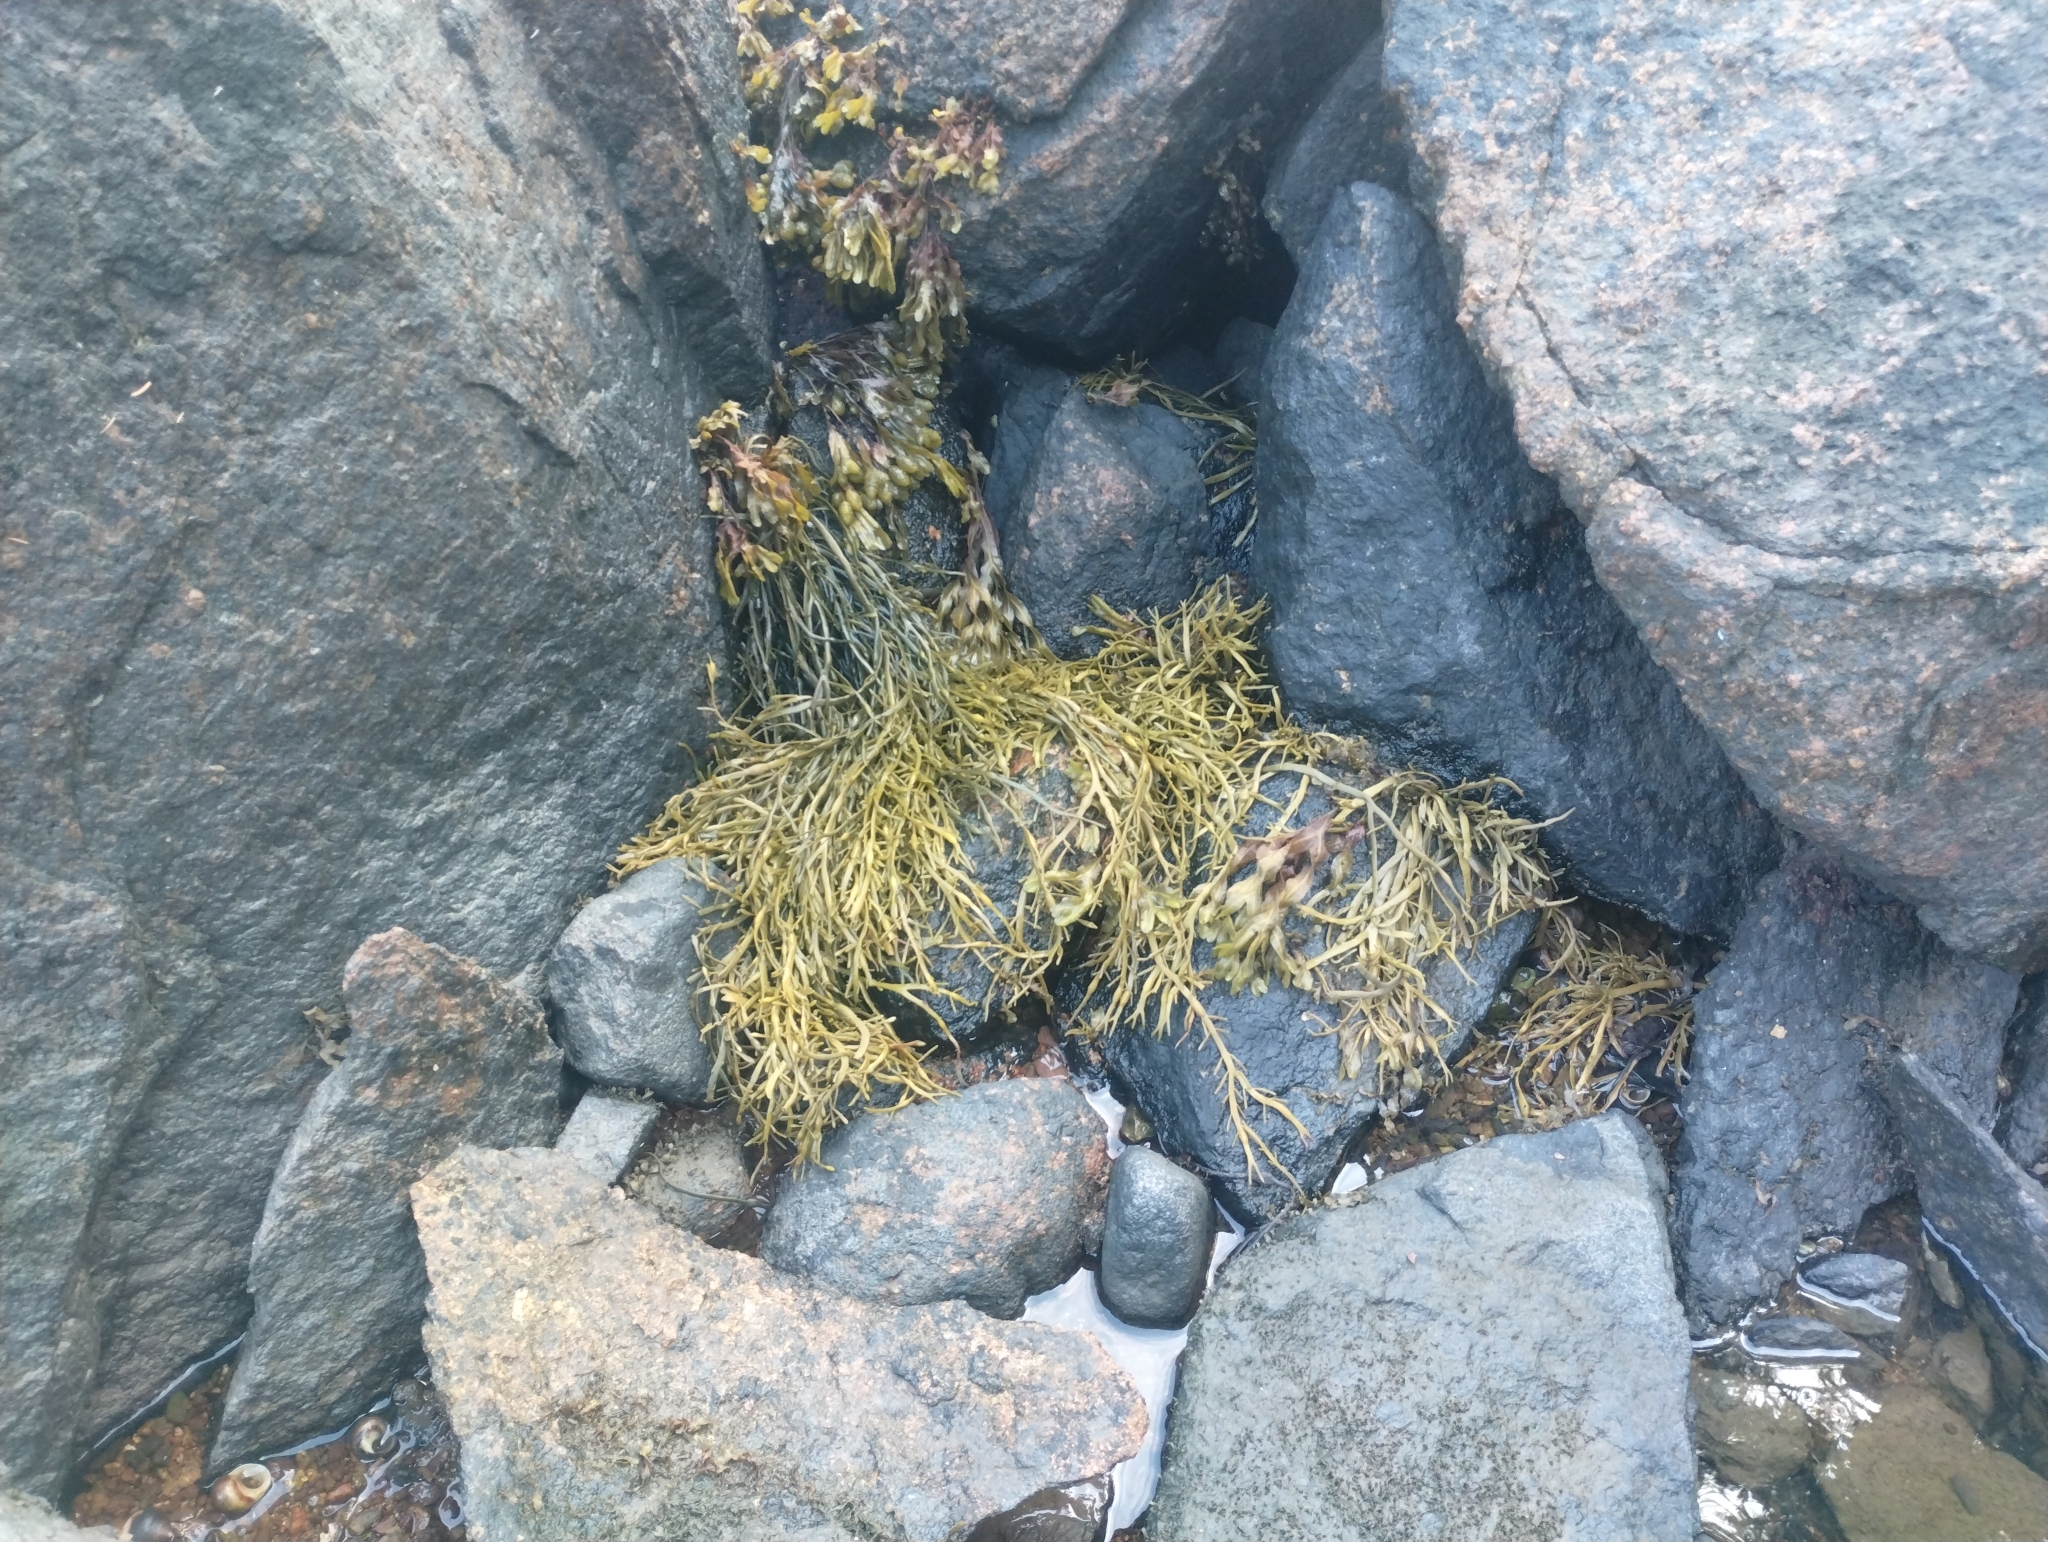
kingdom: Chromista
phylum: Ochrophyta
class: Phaeophyceae
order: Fucales
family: Fucaceae
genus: Ascophyllum
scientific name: Ascophyllum nodosum
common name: Knotted wrack
